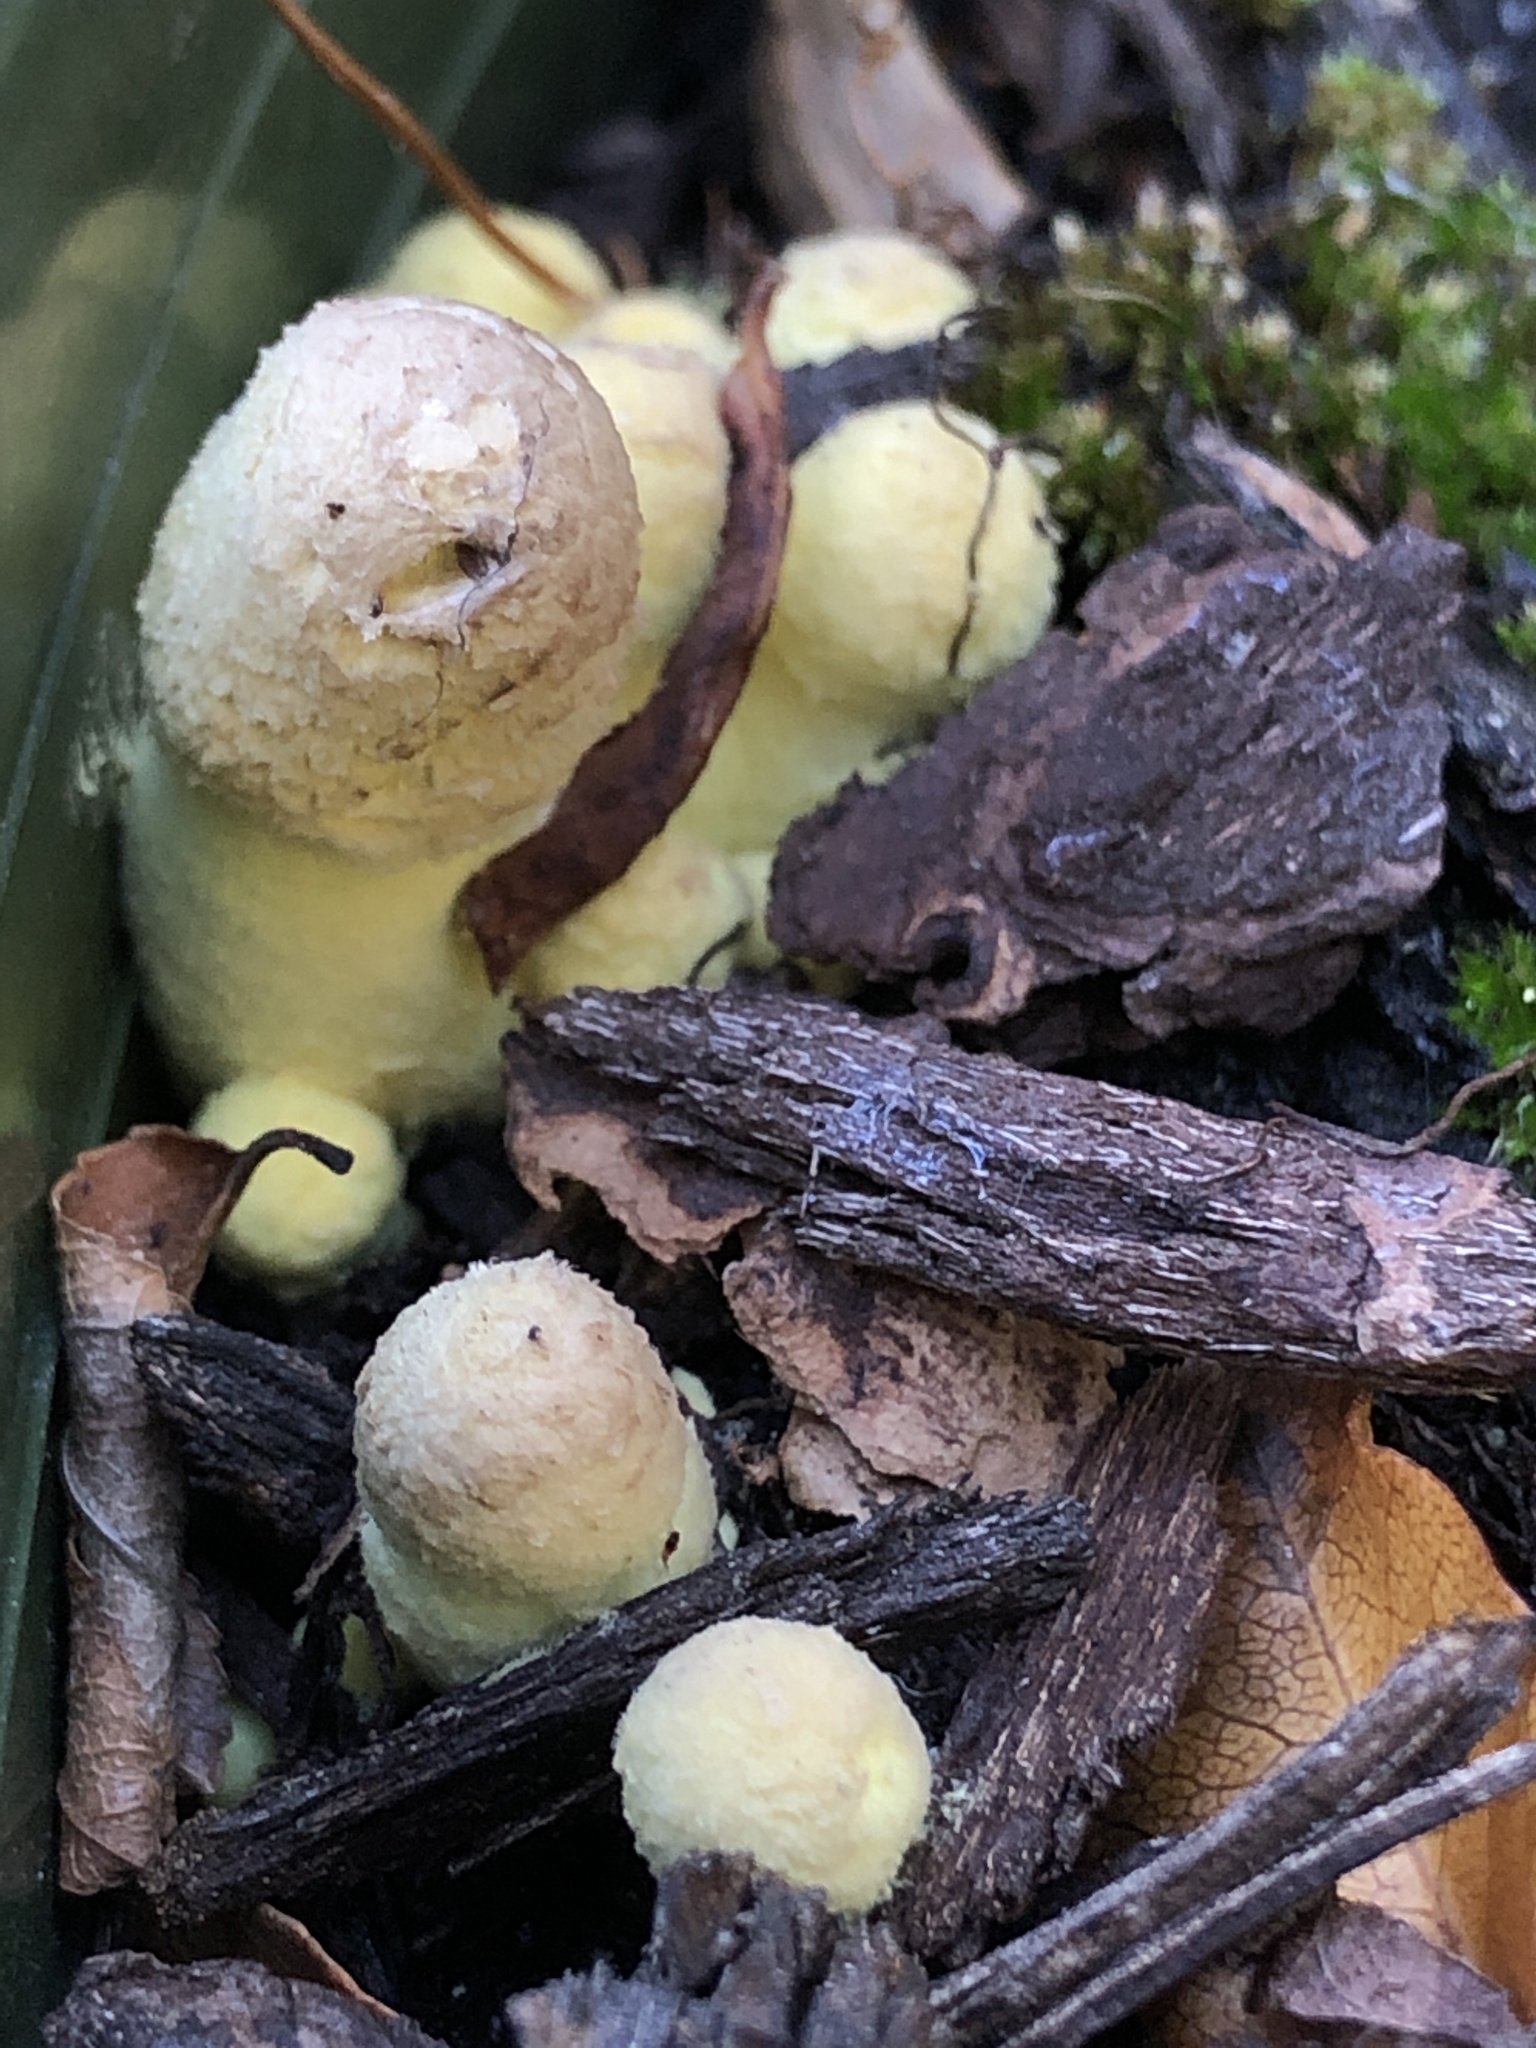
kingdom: Fungi
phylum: Basidiomycota
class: Agaricomycetes
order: Agaricales
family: Agaricaceae
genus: Leucocoprinus
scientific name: Leucocoprinus birnbaumii
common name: Plantpot dapperling
